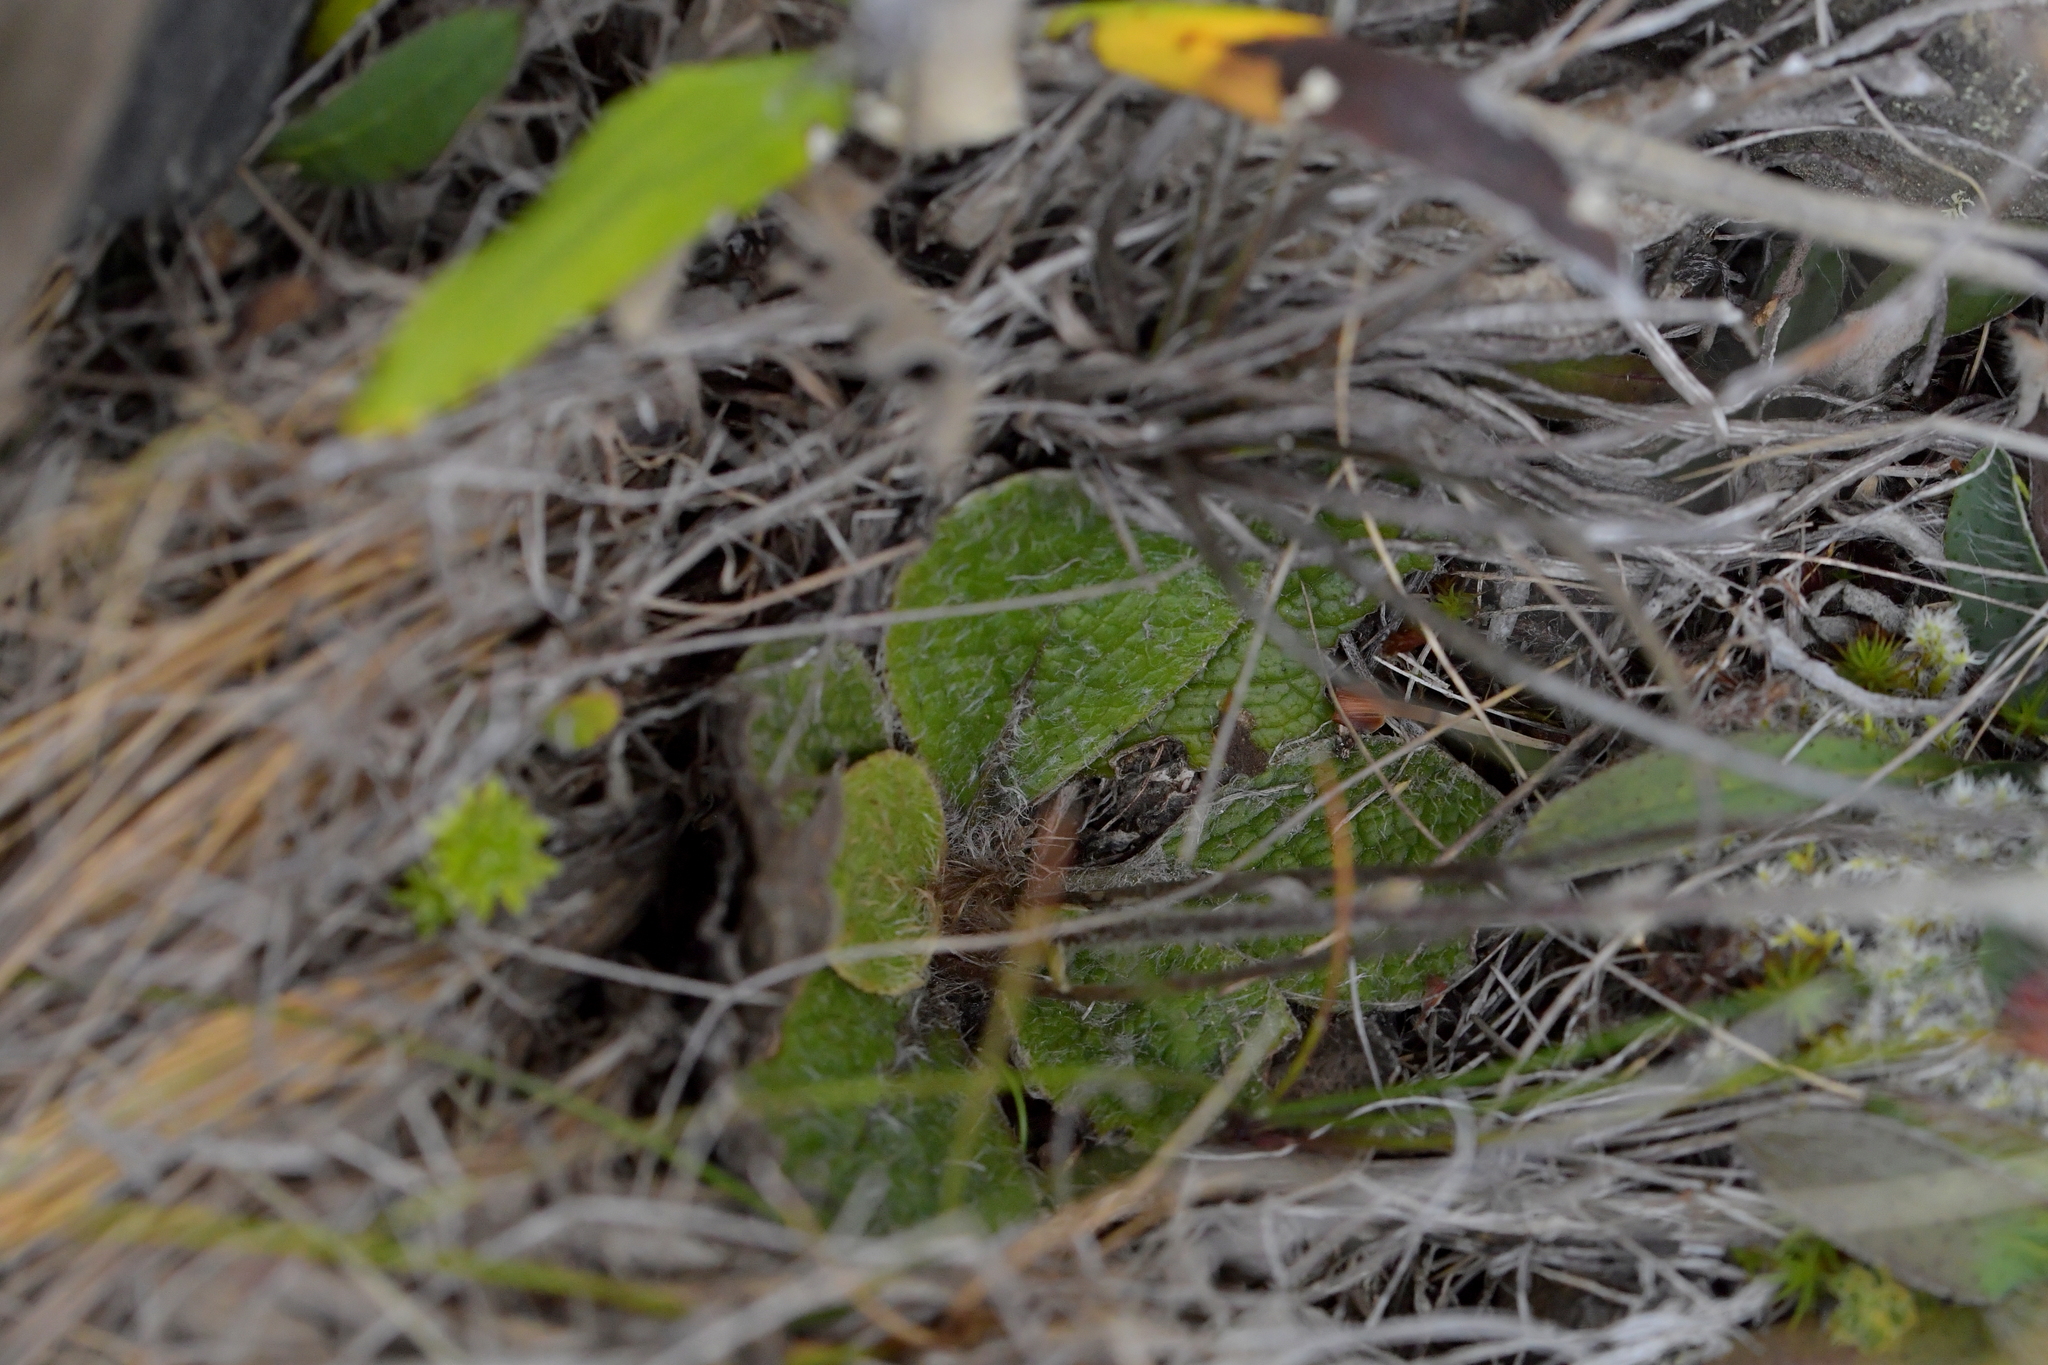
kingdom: Plantae
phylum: Tracheophyta
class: Magnoliopsida
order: Asterales
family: Asteraceae
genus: Brachyglottis
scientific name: Brachyglottis lagopus
